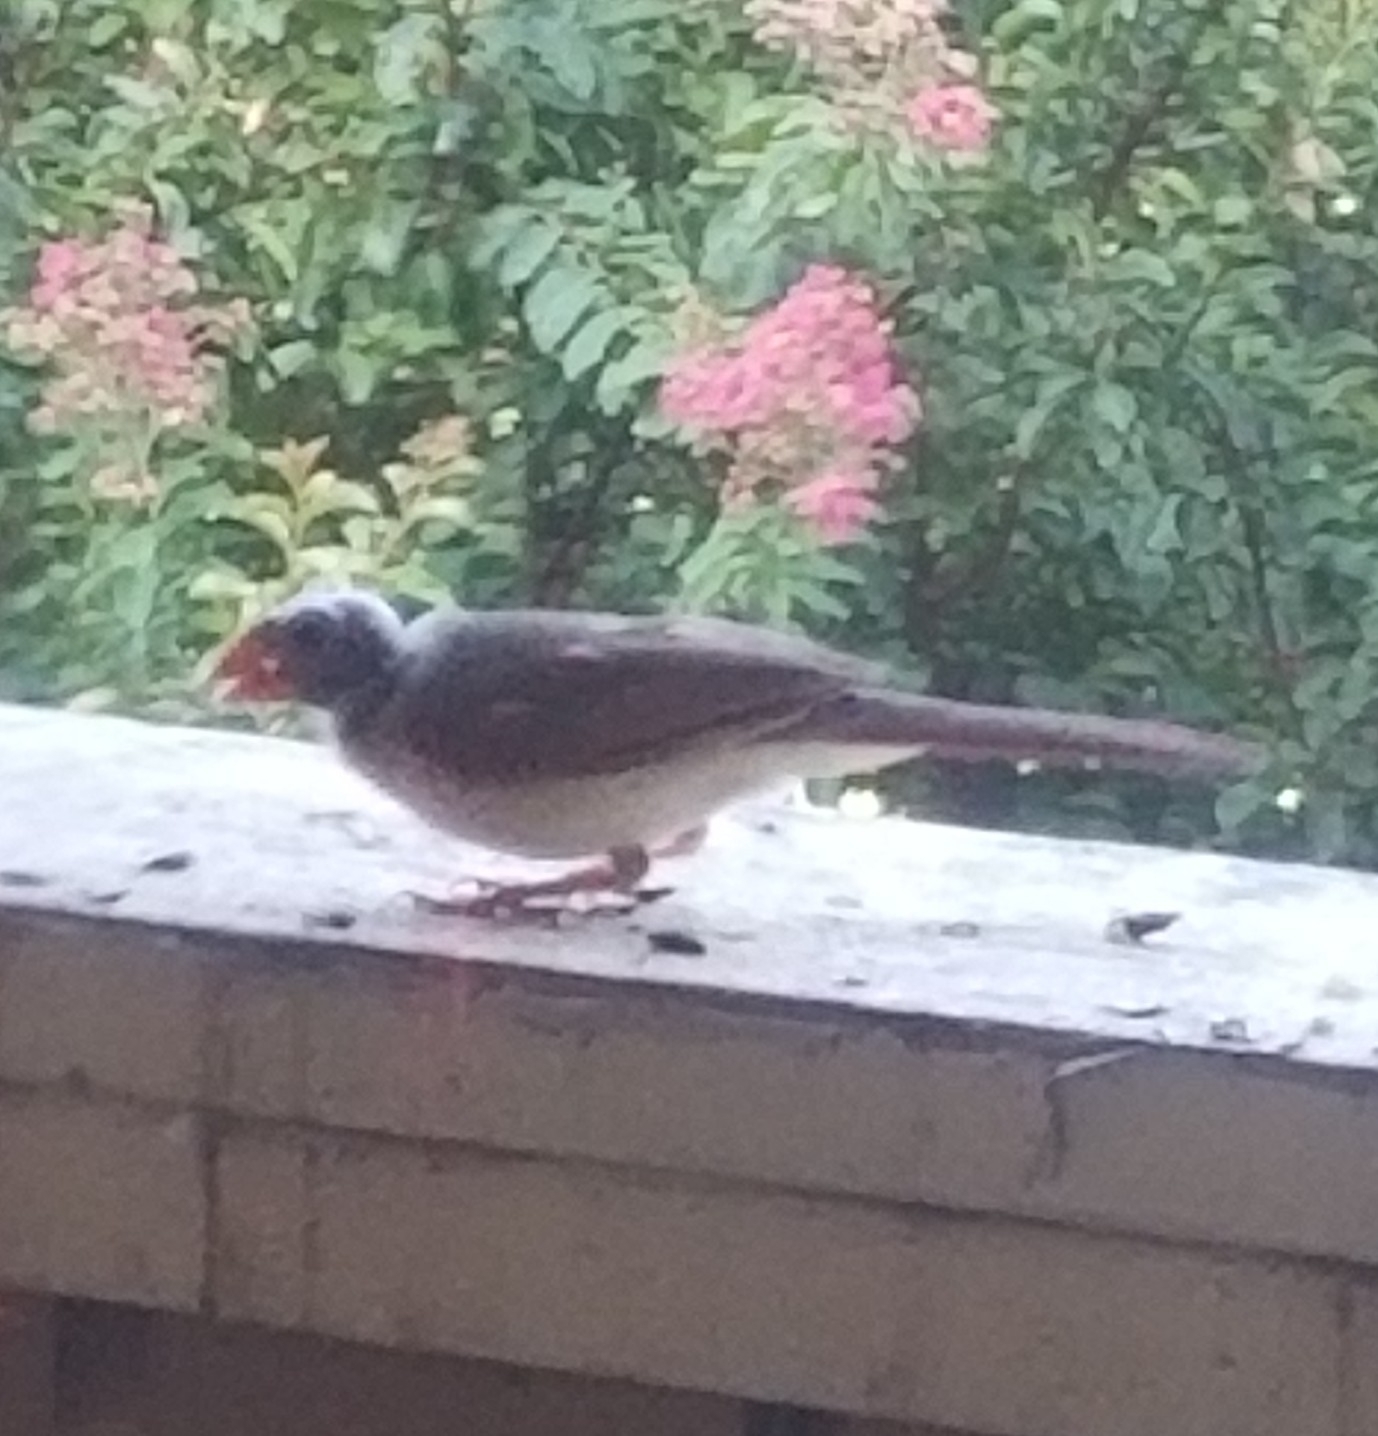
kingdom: Animalia
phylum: Chordata
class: Aves
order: Passeriformes
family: Cardinalidae
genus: Cardinalis
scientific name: Cardinalis cardinalis
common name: Northern cardinal
